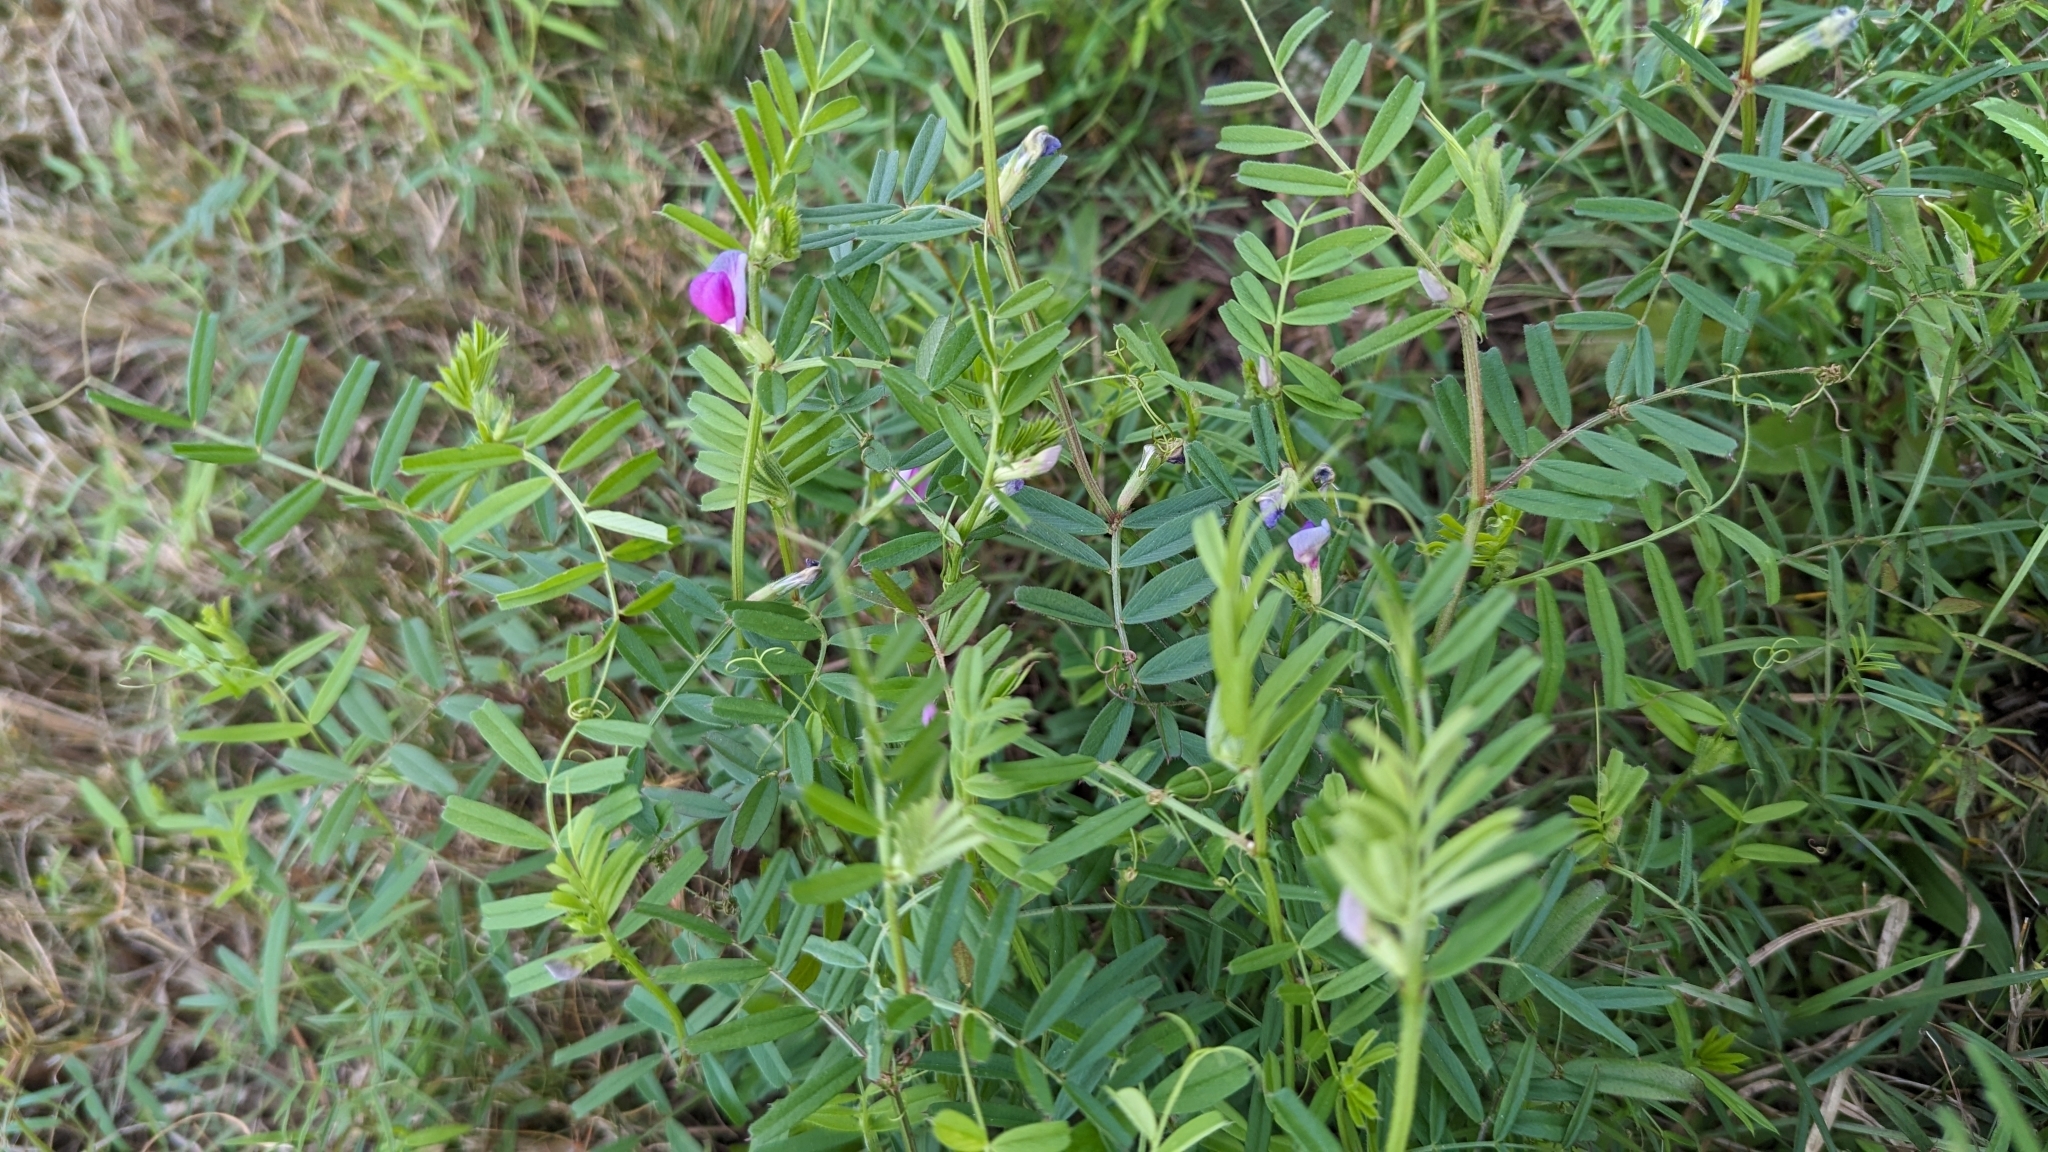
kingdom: Plantae
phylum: Tracheophyta
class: Magnoliopsida
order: Fabales
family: Fabaceae
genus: Vicia
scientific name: Vicia sativa
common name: Garden vetch
